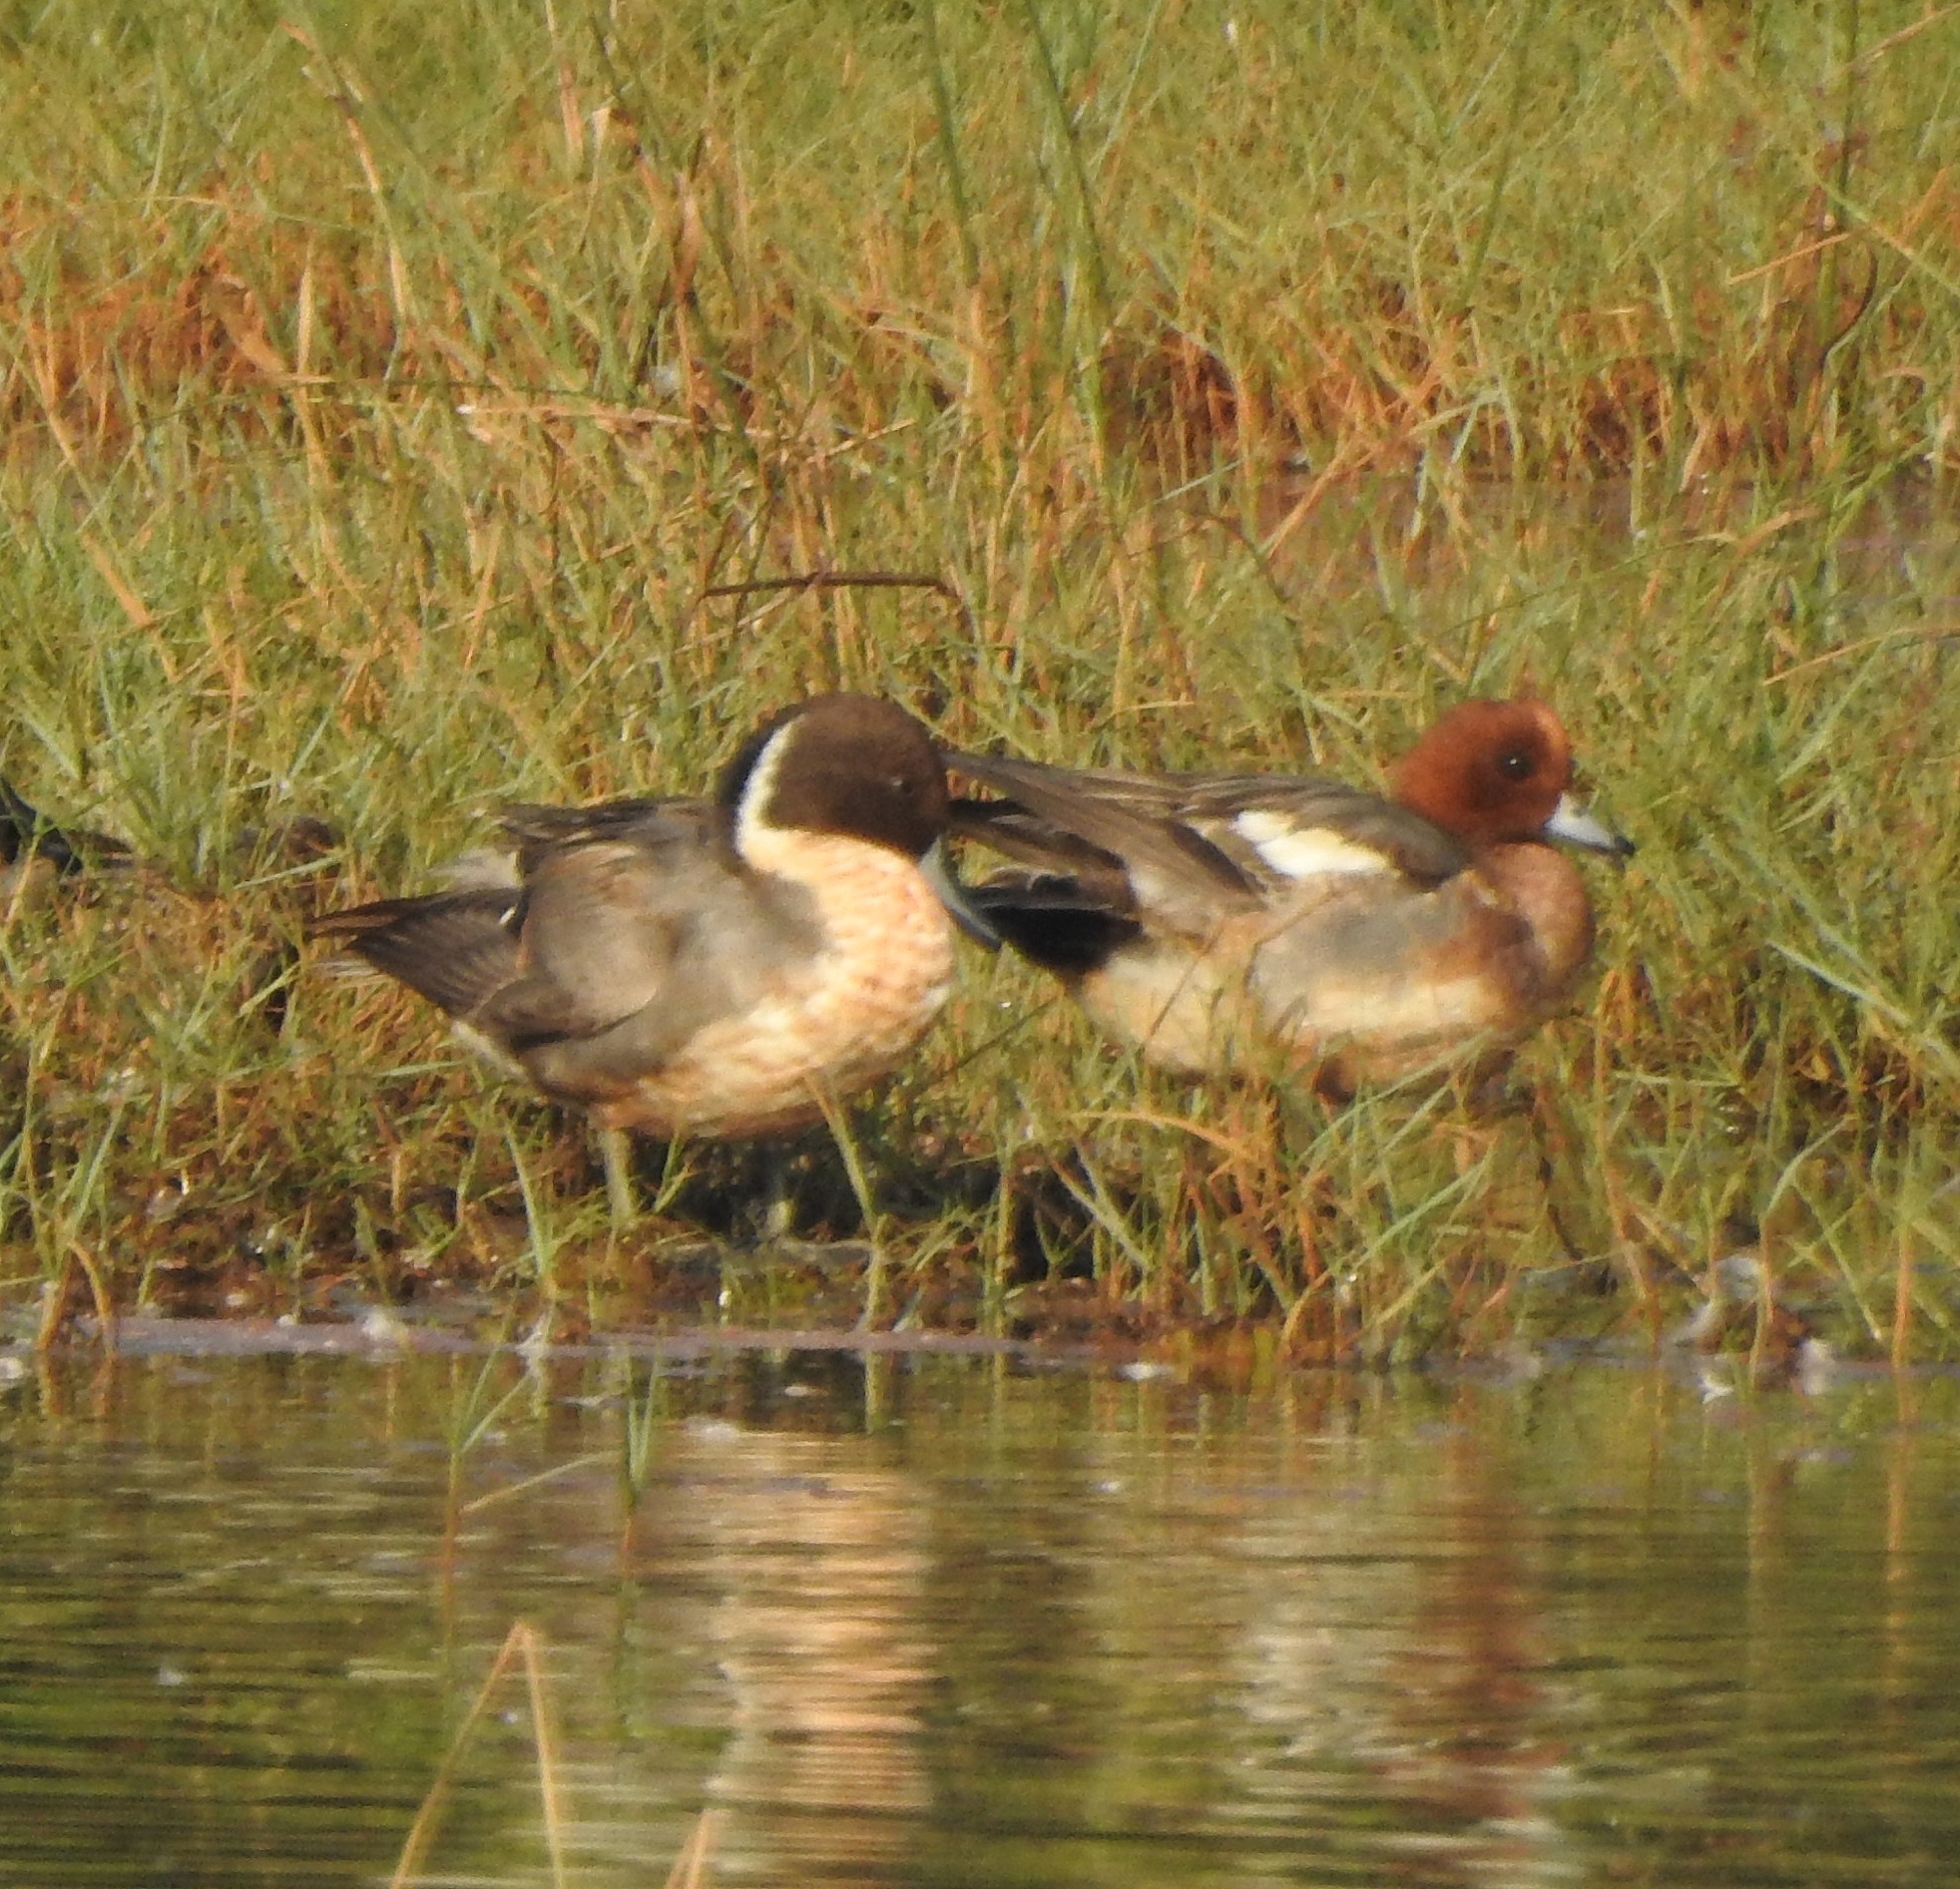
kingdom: Animalia
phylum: Chordata
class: Aves
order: Anseriformes
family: Anatidae
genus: Mareca
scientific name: Mareca penelope
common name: Eurasian wigeon
